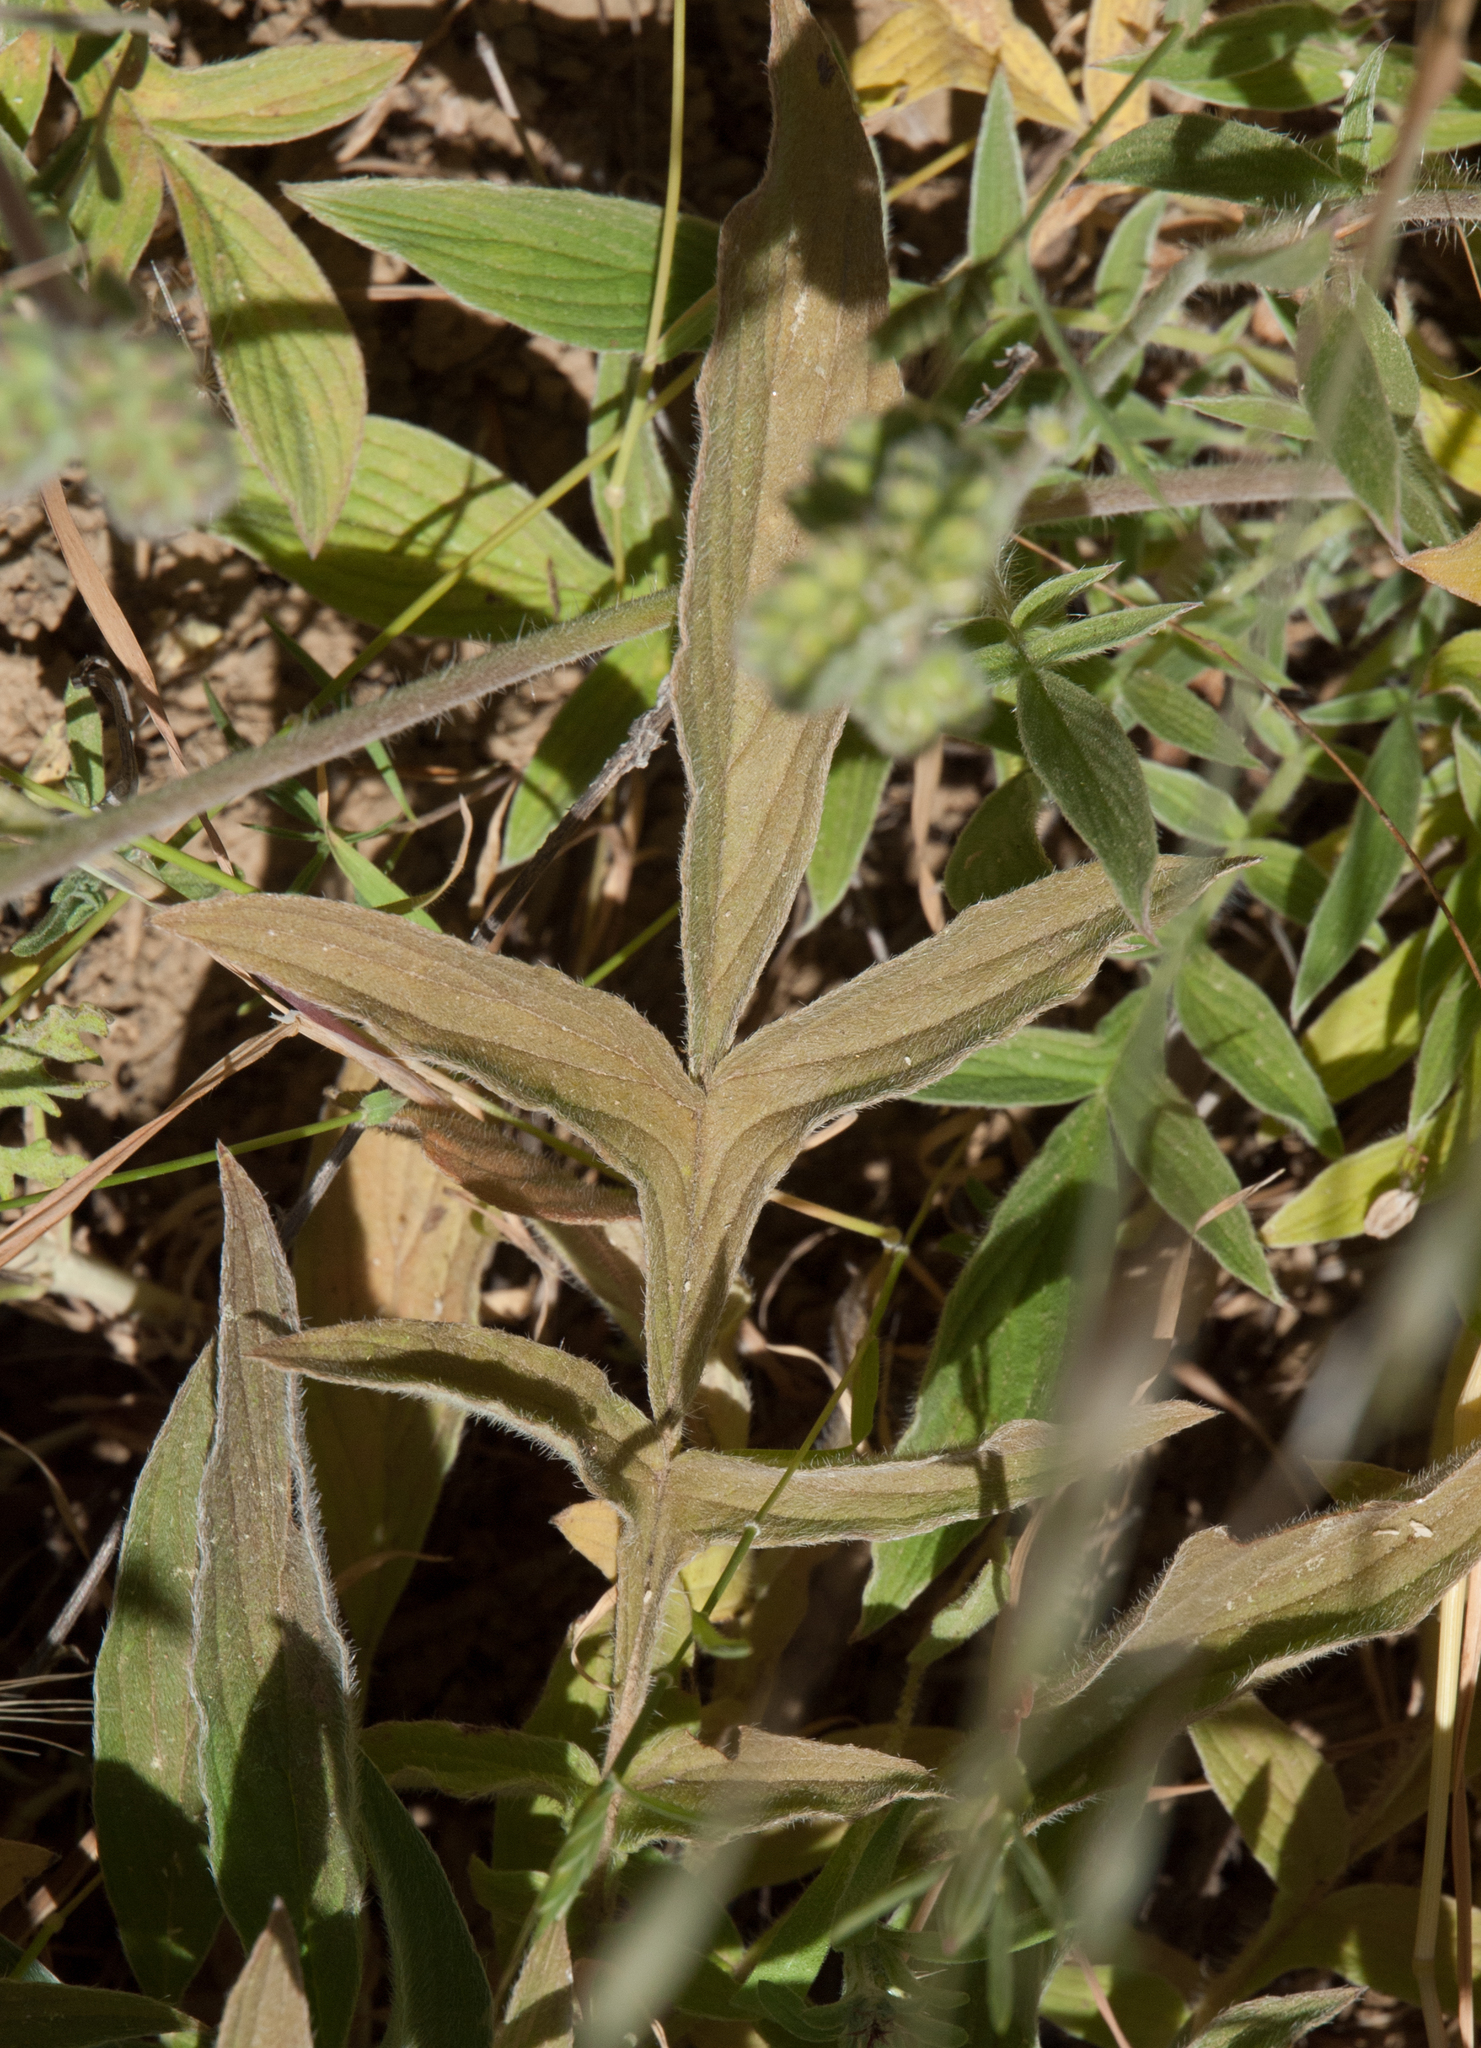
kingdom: Plantae
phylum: Tracheophyta
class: Magnoliopsida
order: Boraginales
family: Hydrophyllaceae
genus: Phacelia
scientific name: Phacelia imbricata
